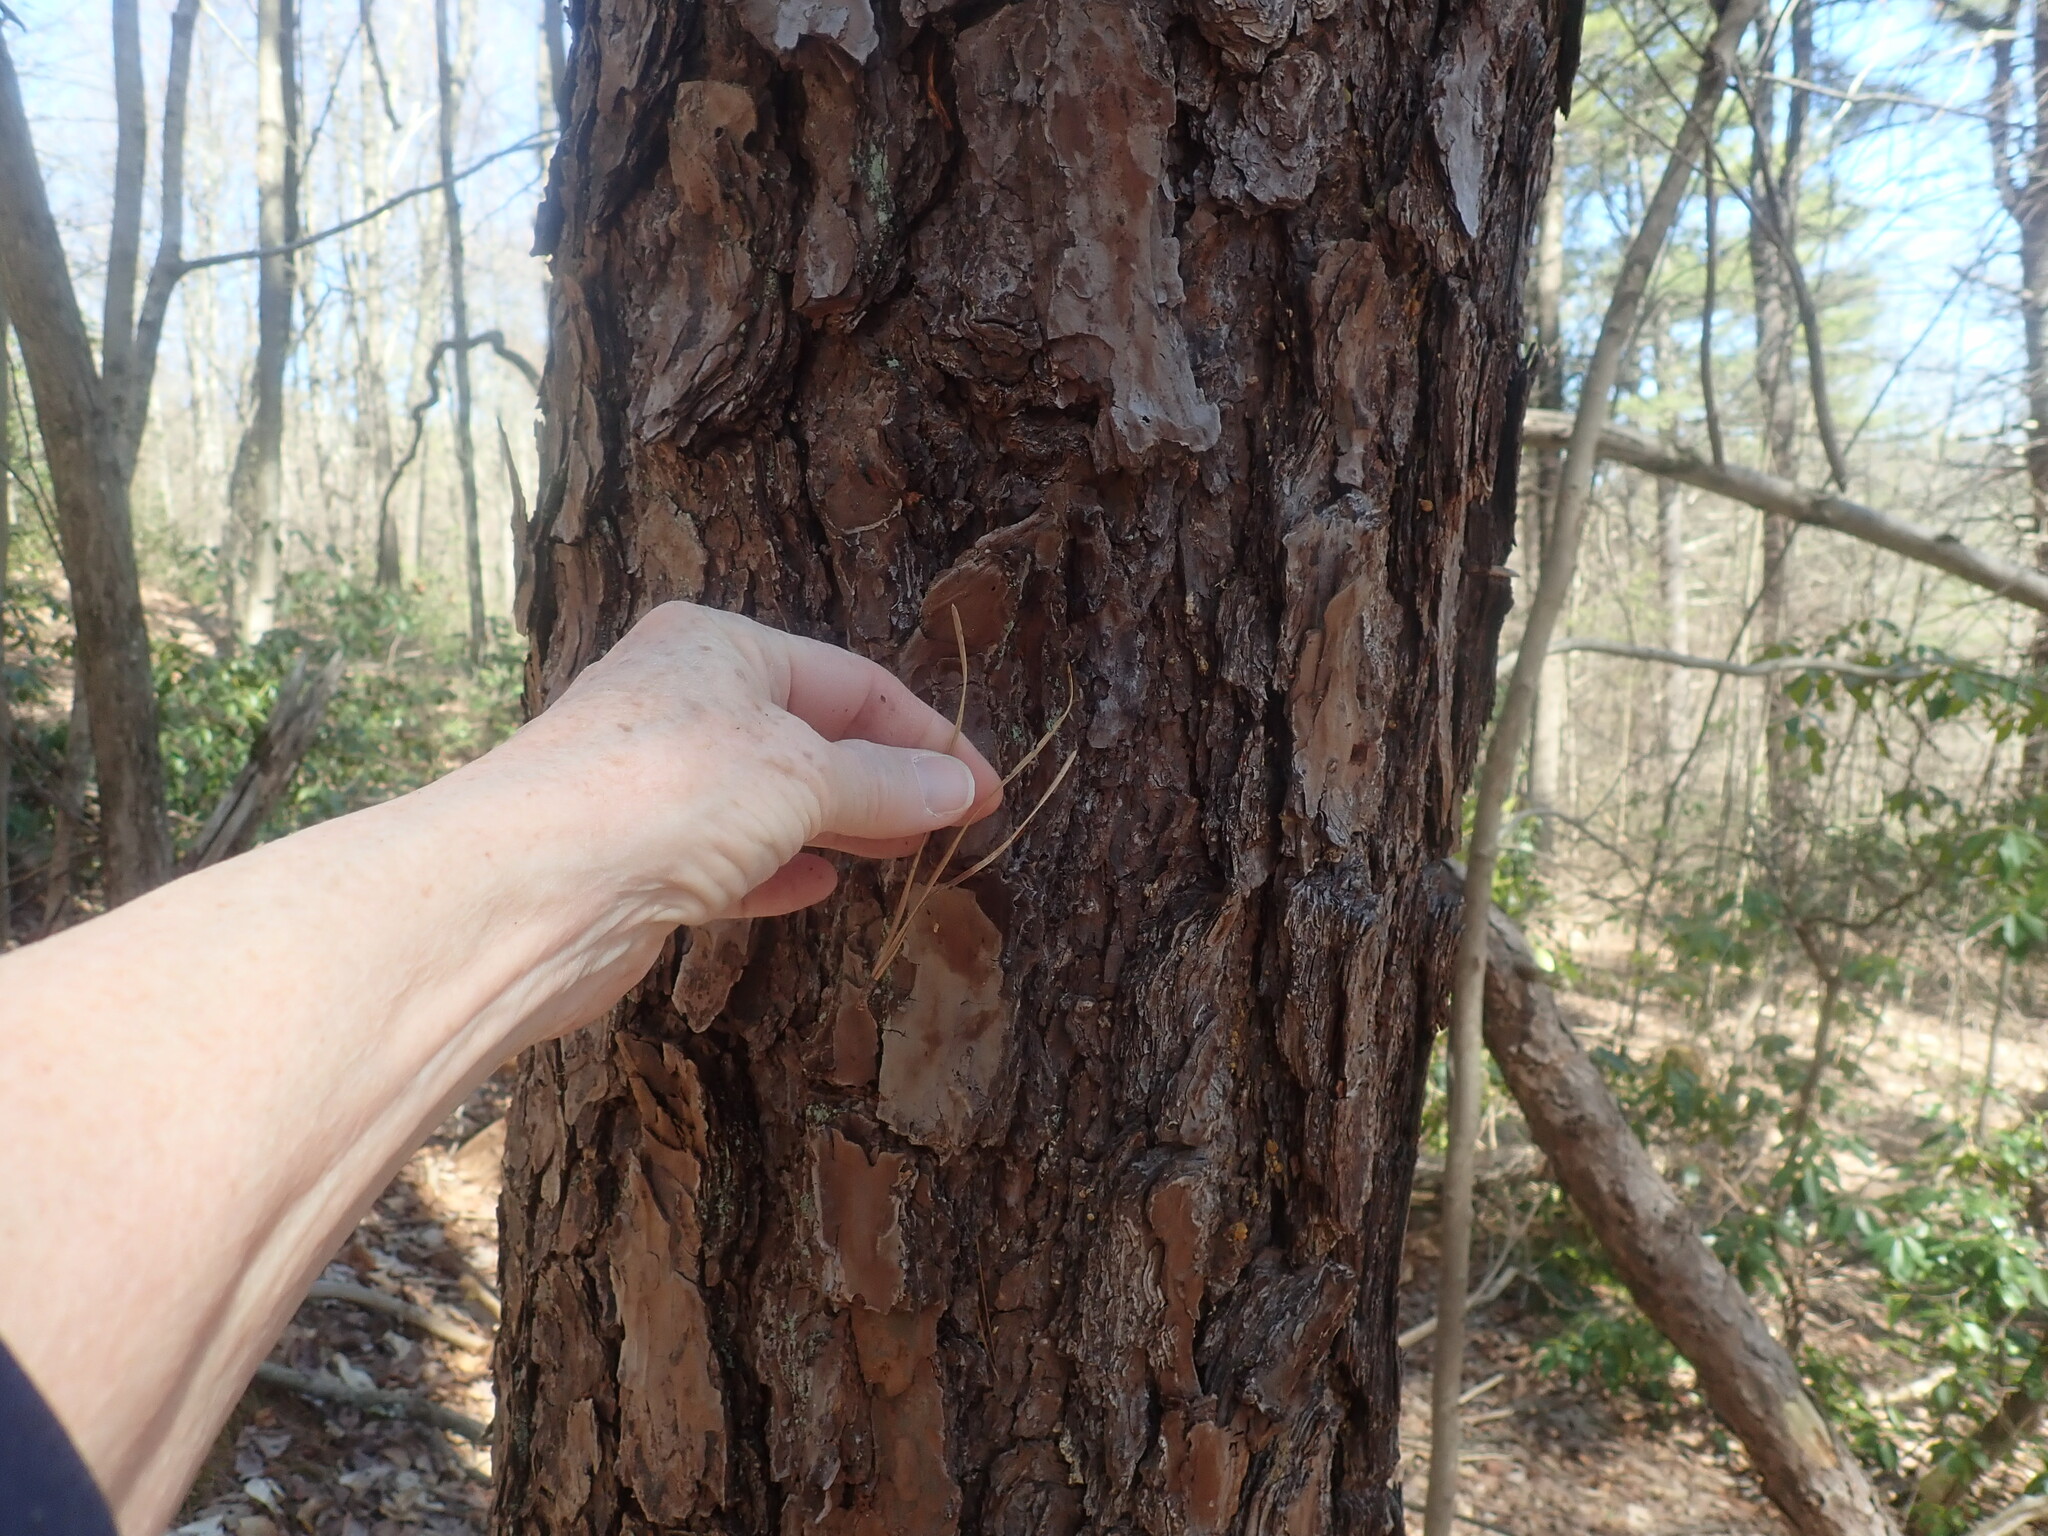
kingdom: Plantae
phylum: Tracheophyta
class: Pinopsida
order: Pinales
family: Pinaceae
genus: Pinus
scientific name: Pinus rigida
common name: Pitch pine
